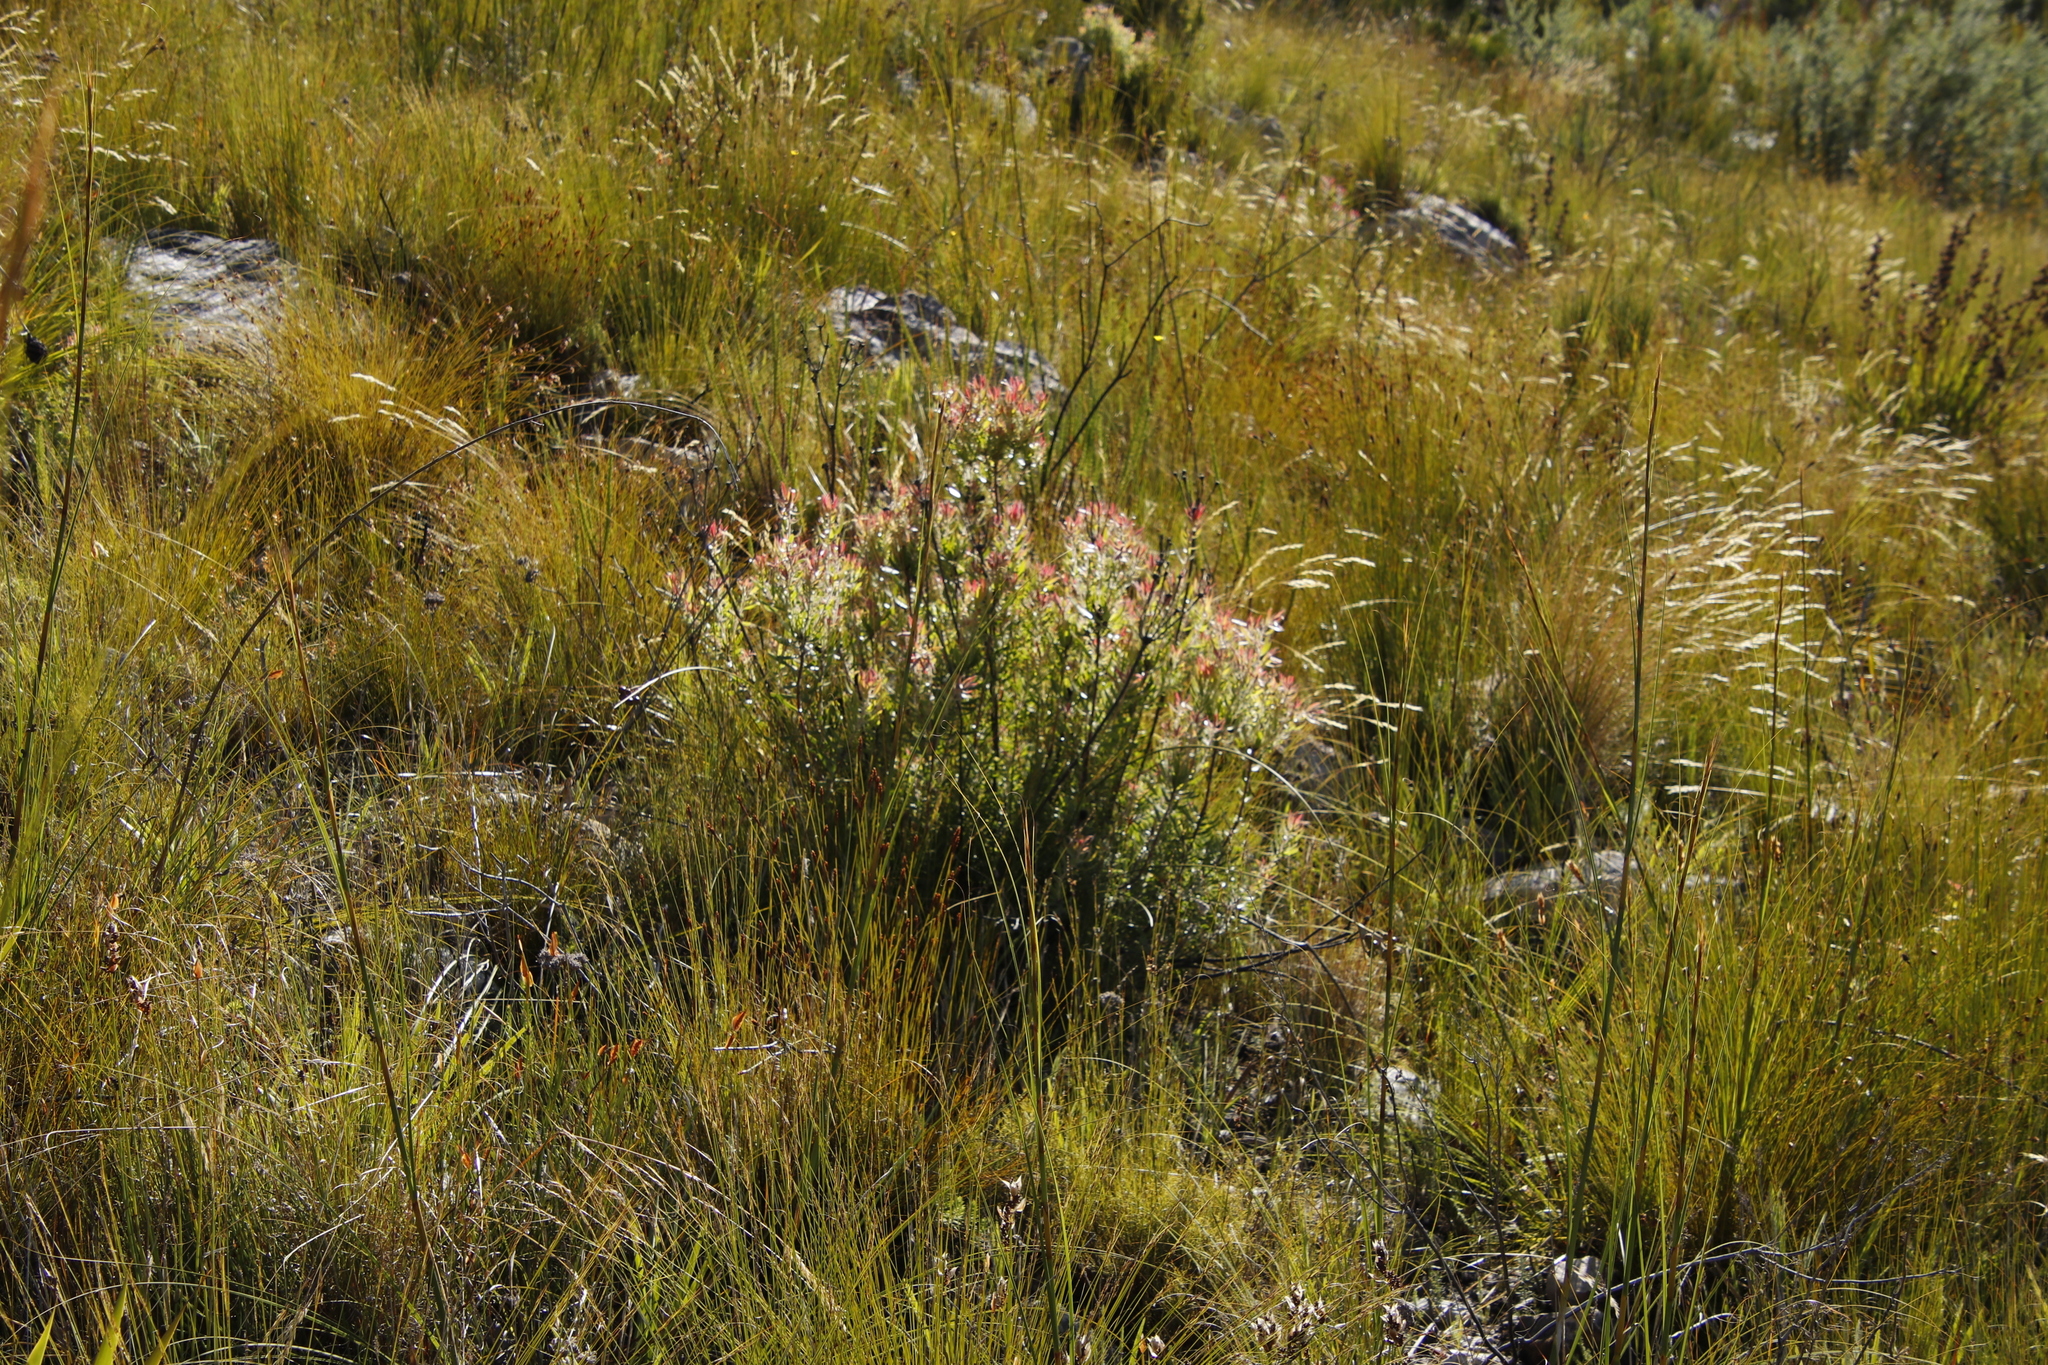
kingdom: Plantae
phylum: Tracheophyta
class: Magnoliopsida
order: Proteales
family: Proteaceae
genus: Leucadendron
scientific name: Leucadendron spissifolium
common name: Spear-leaf conebush
